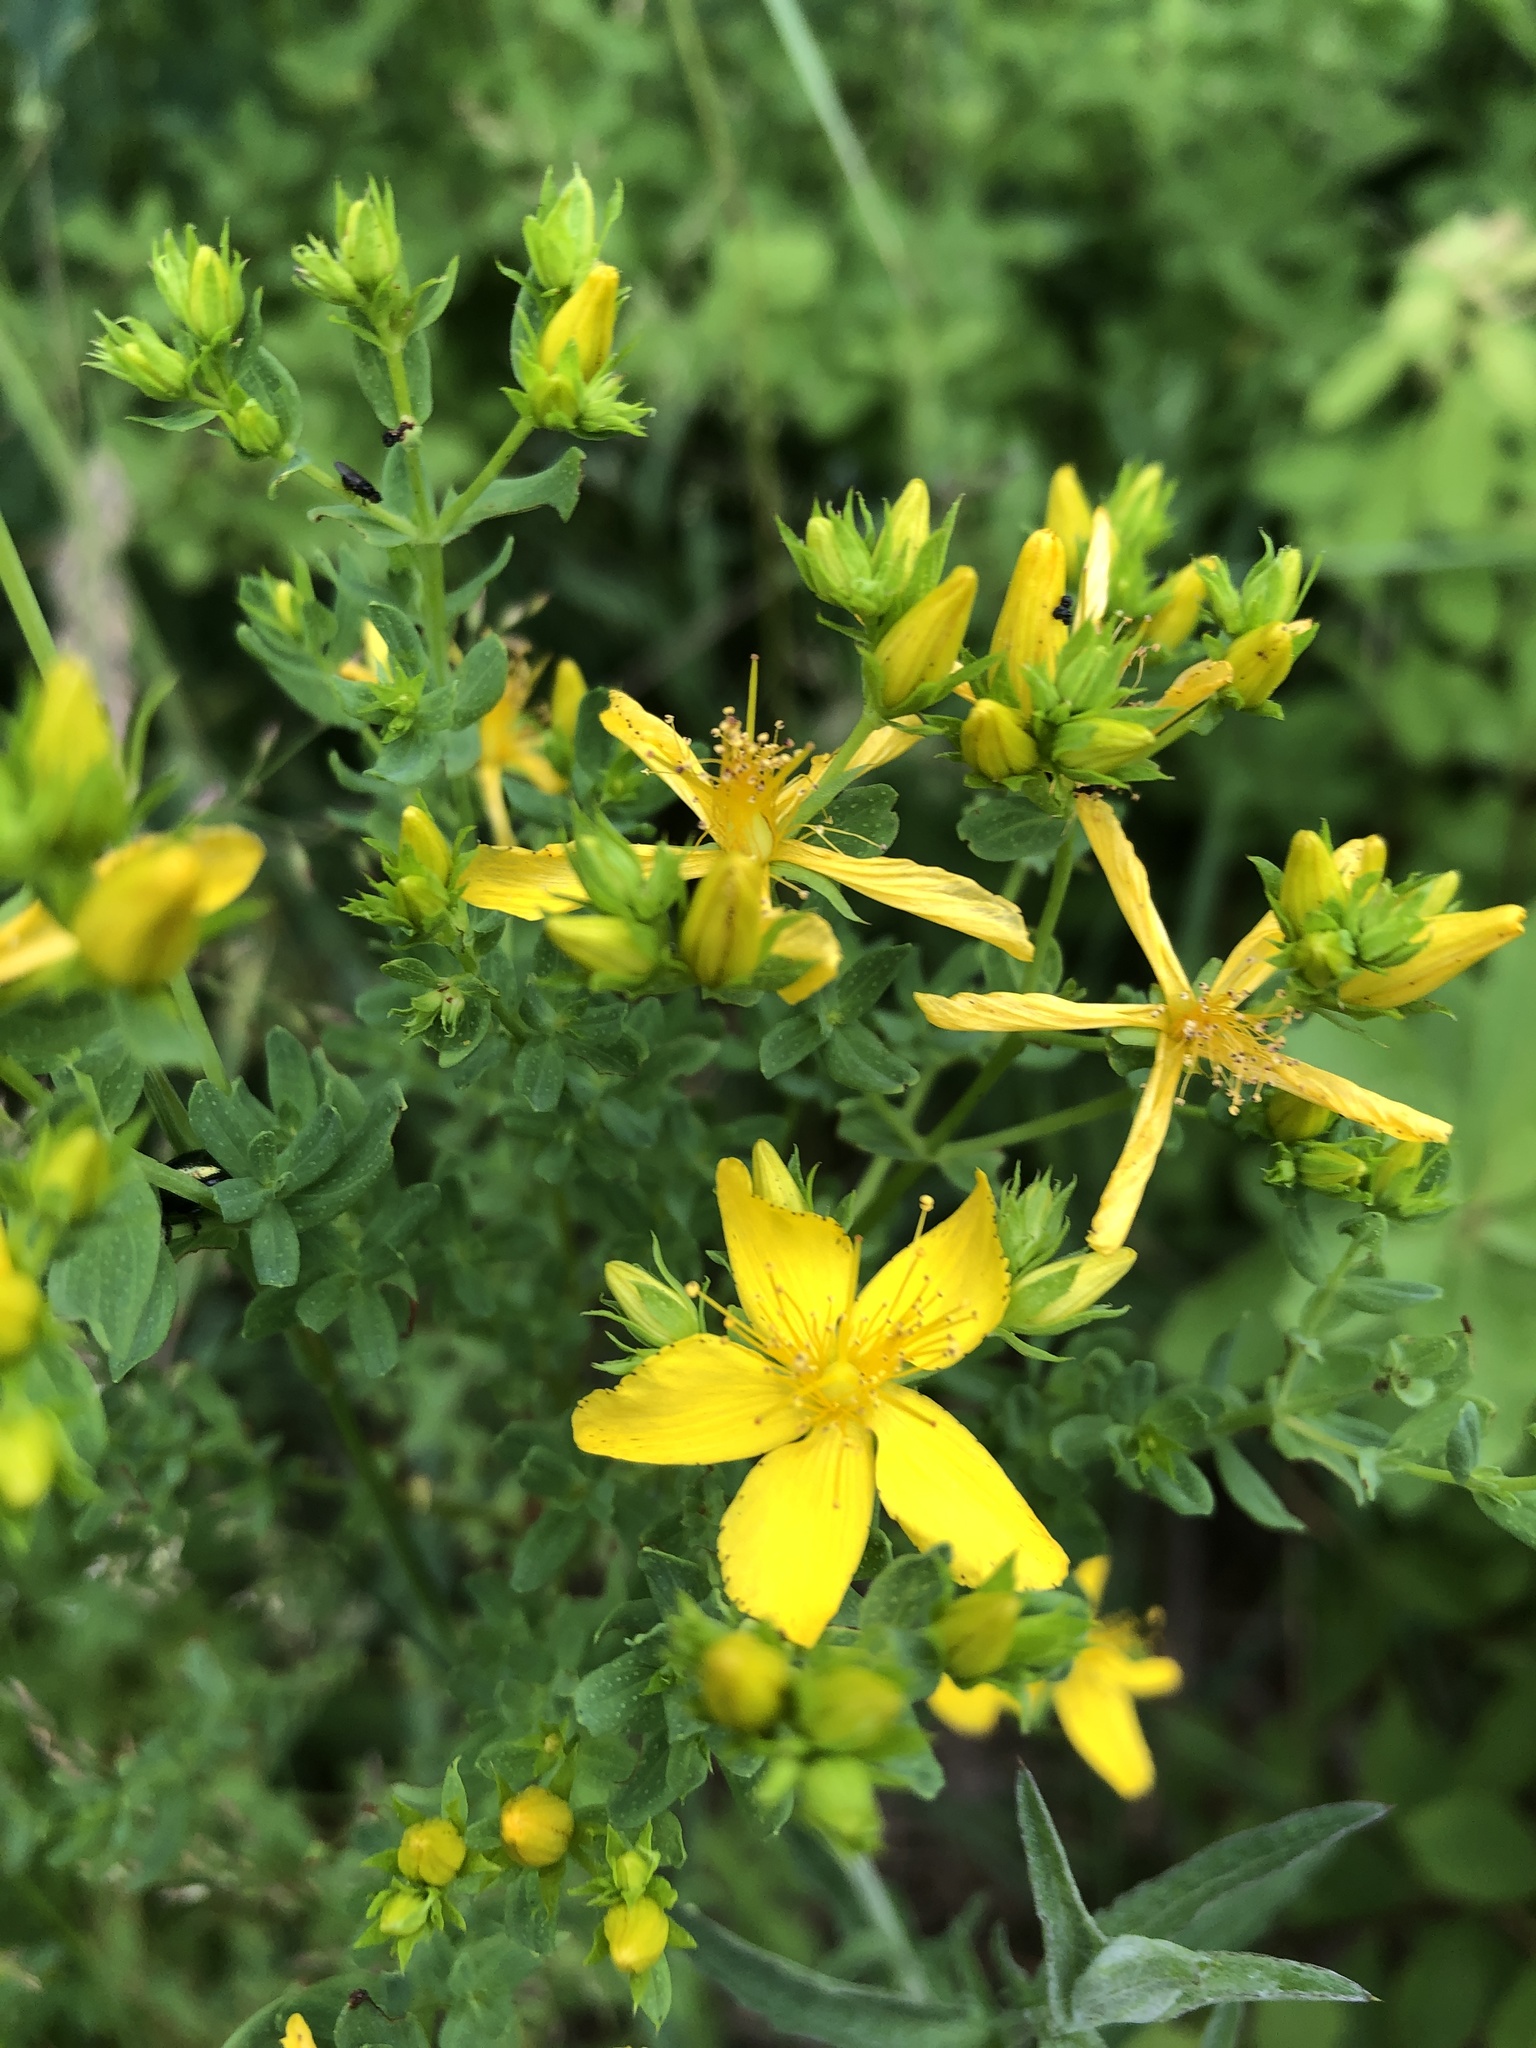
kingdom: Plantae
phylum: Tracheophyta
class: Magnoliopsida
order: Malpighiales
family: Hypericaceae
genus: Hypericum
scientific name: Hypericum perforatum
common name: Common st. johnswort
